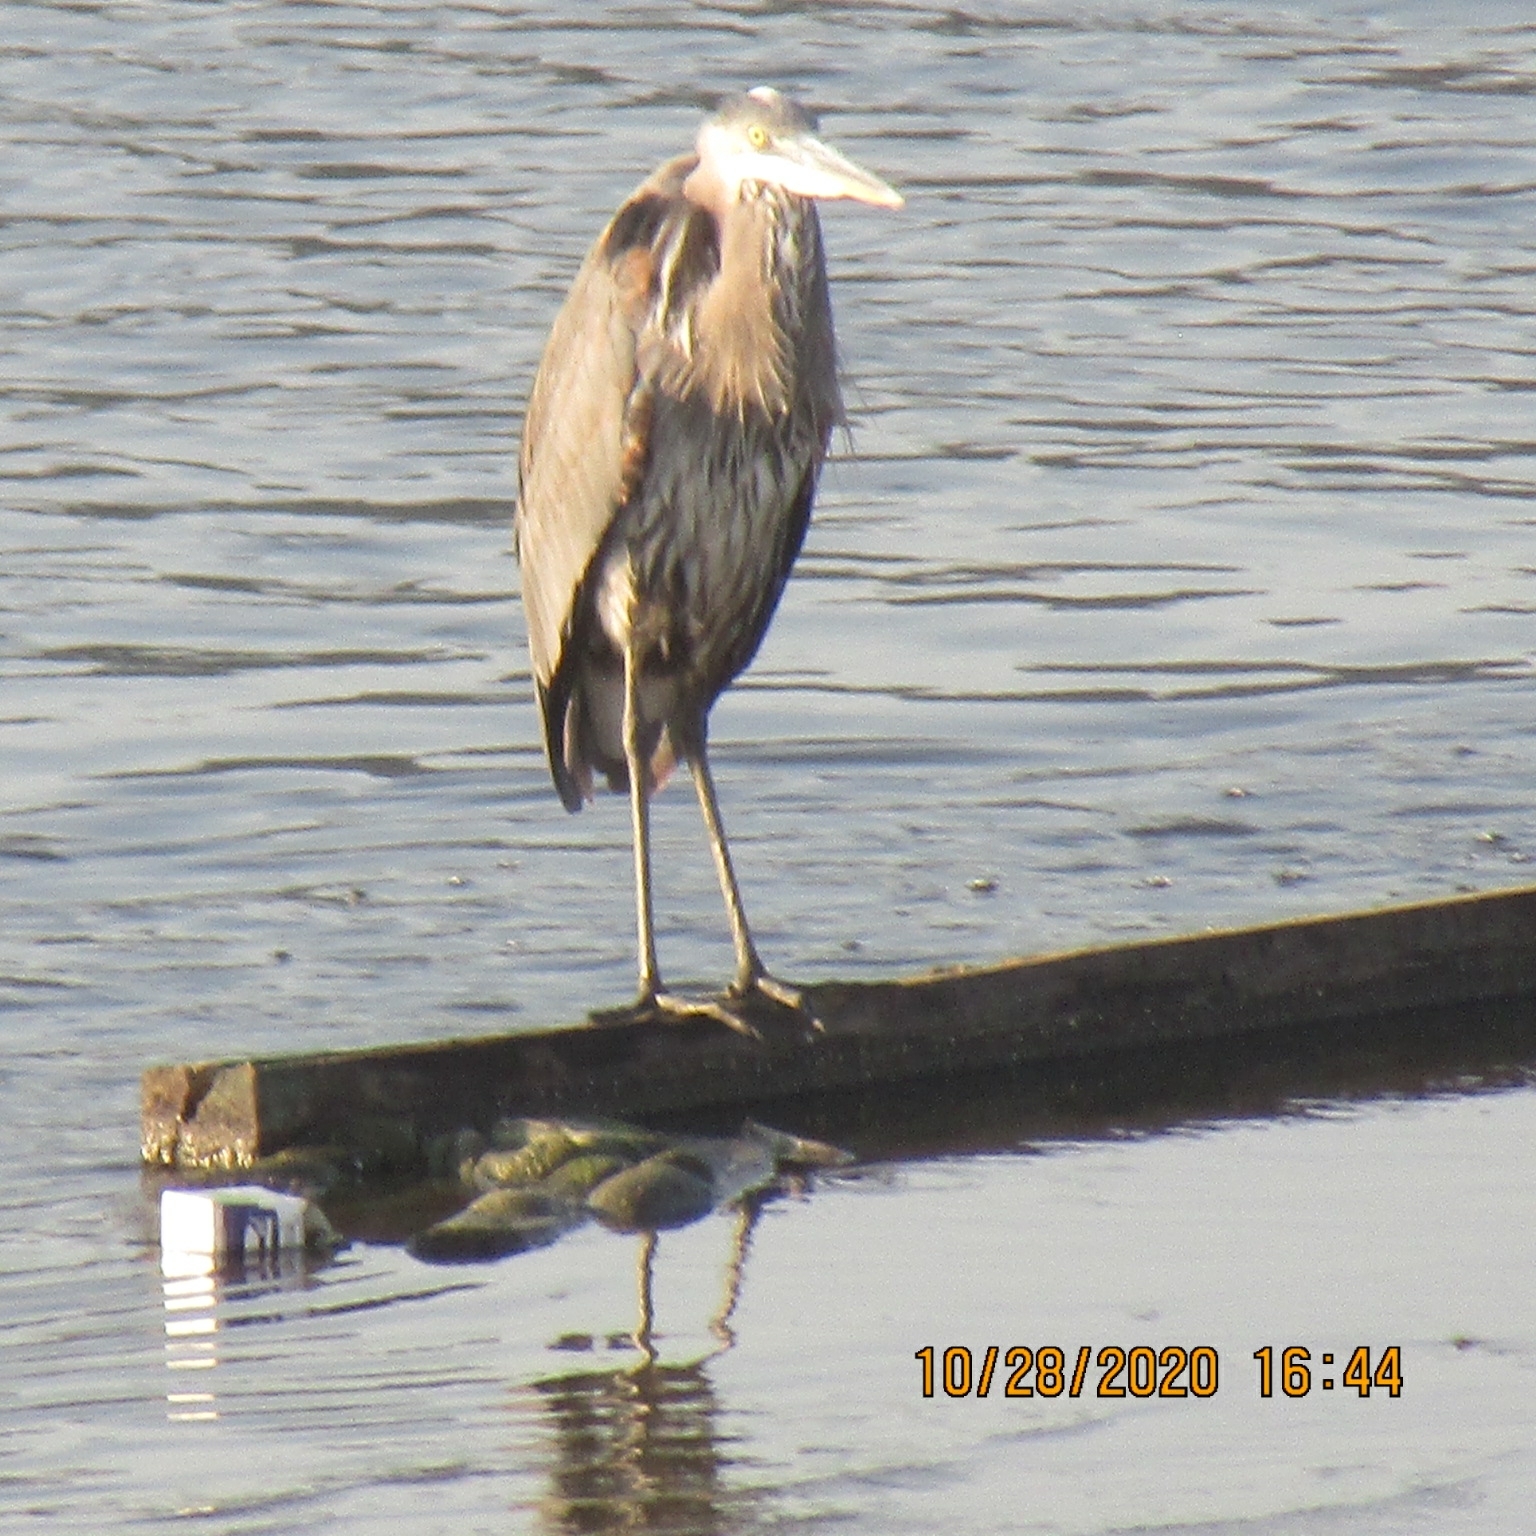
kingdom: Animalia
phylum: Chordata
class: Aves
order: Pelecaniformes
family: Ardeidae
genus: Ardea
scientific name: Ardea herodias
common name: Great blue heron
